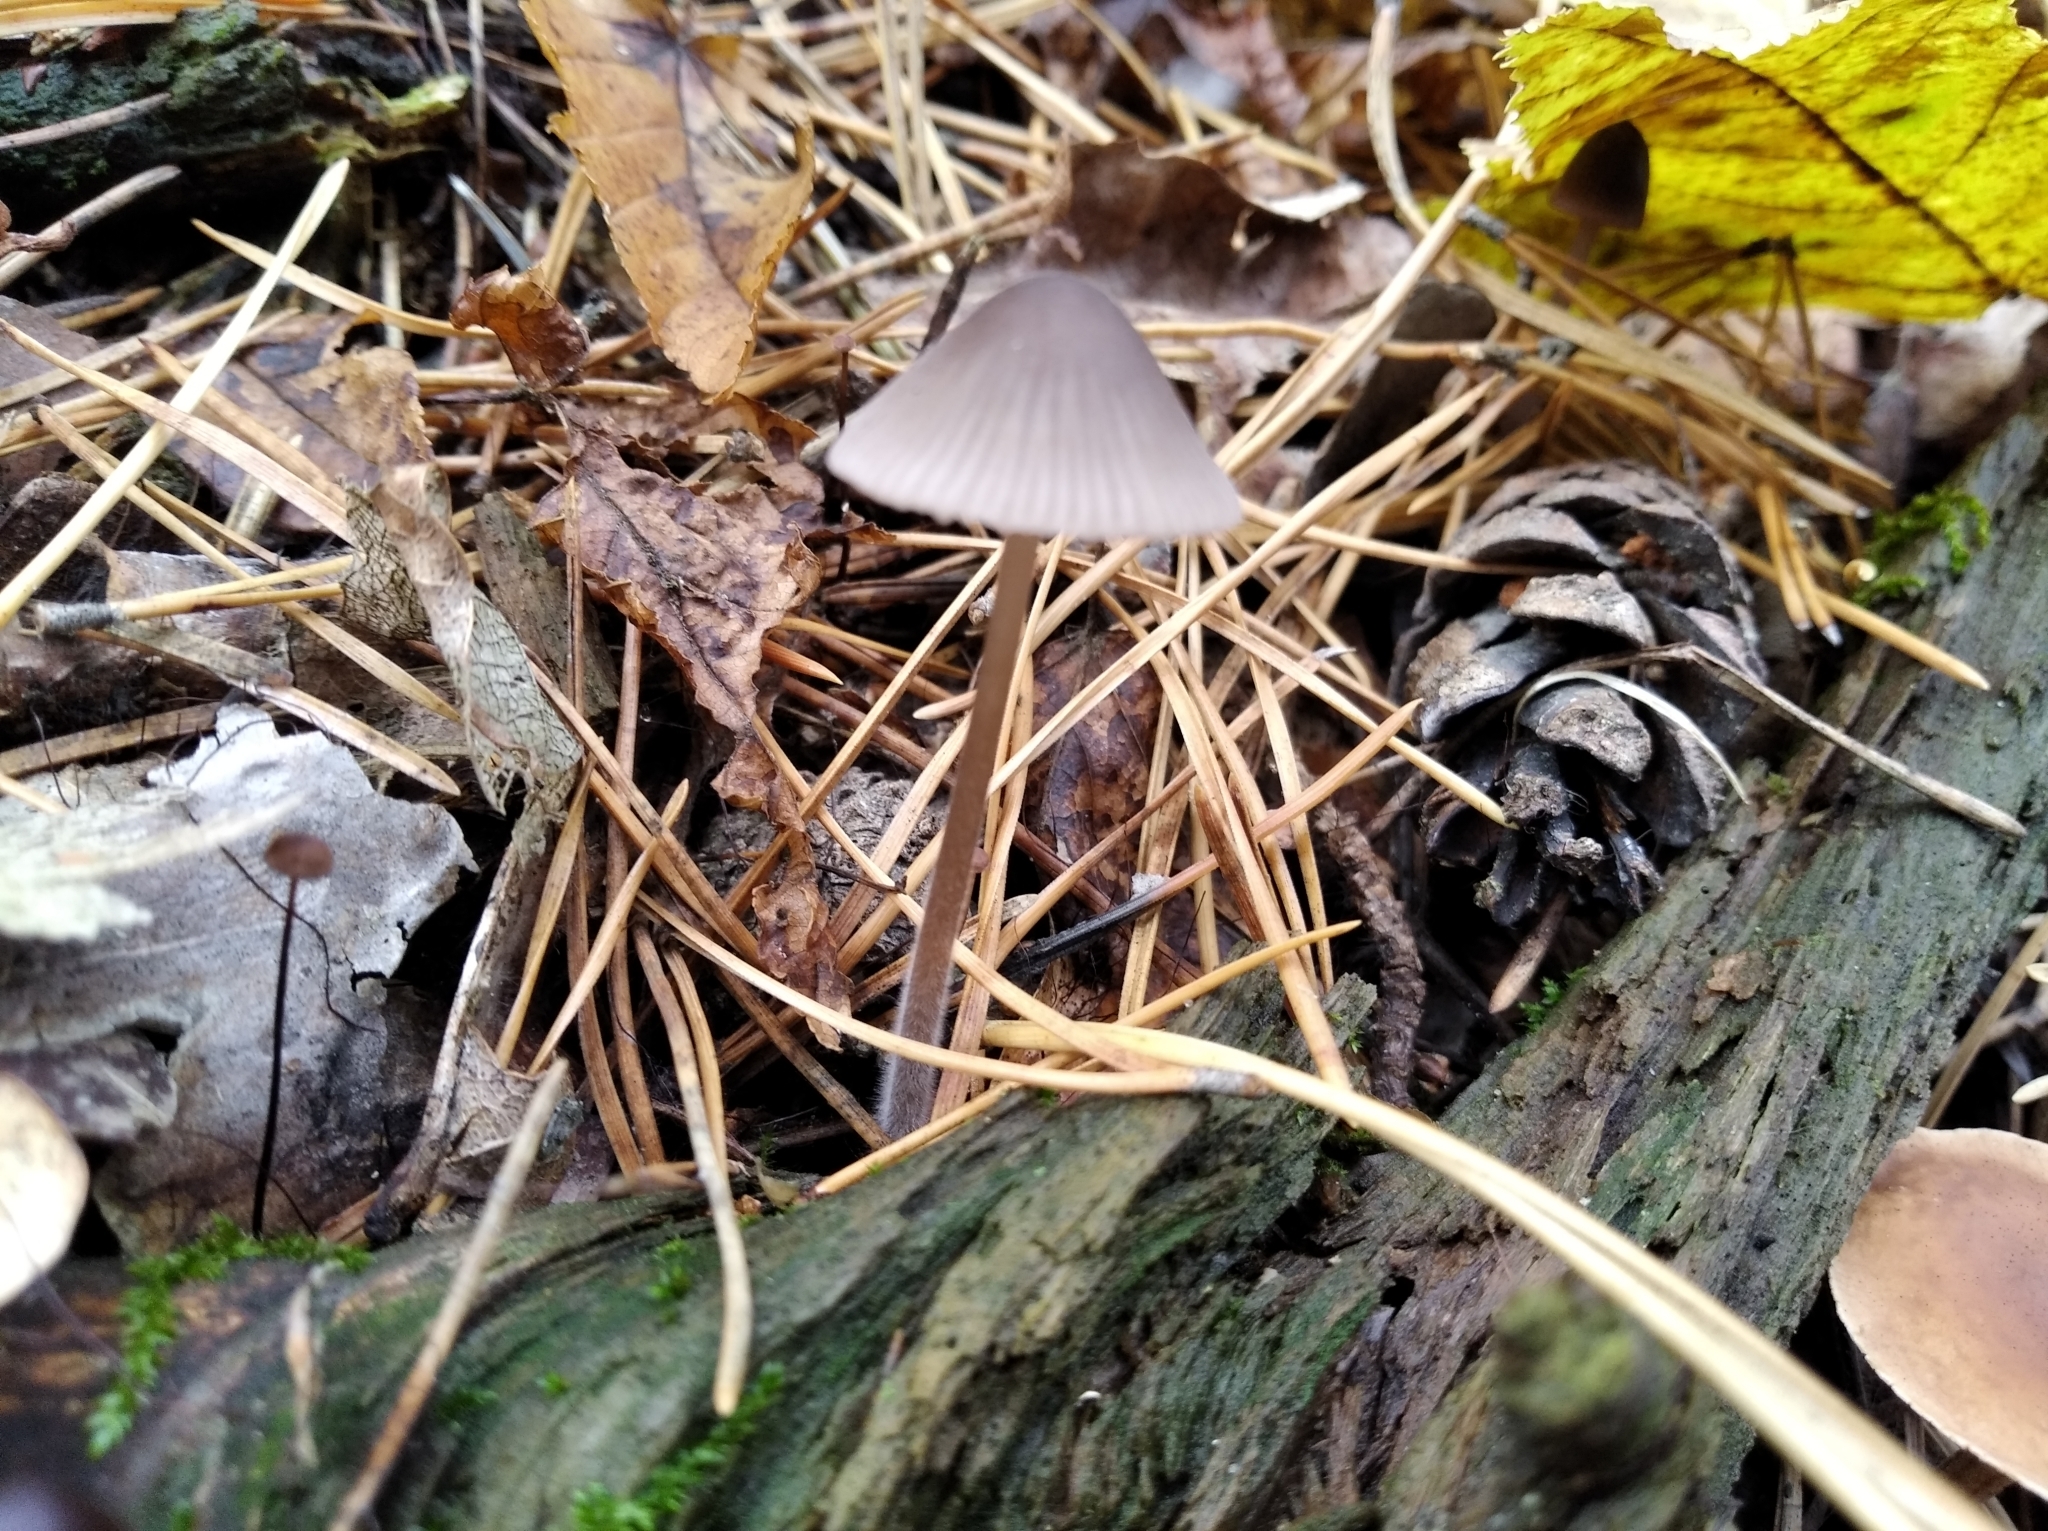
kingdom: Fungi
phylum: Basidiomycota
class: Agaricomycetes
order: Agaricales
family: Mycenaceae
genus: Mycena
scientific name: Mycena purpureofusca
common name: Purple edge bonnet
